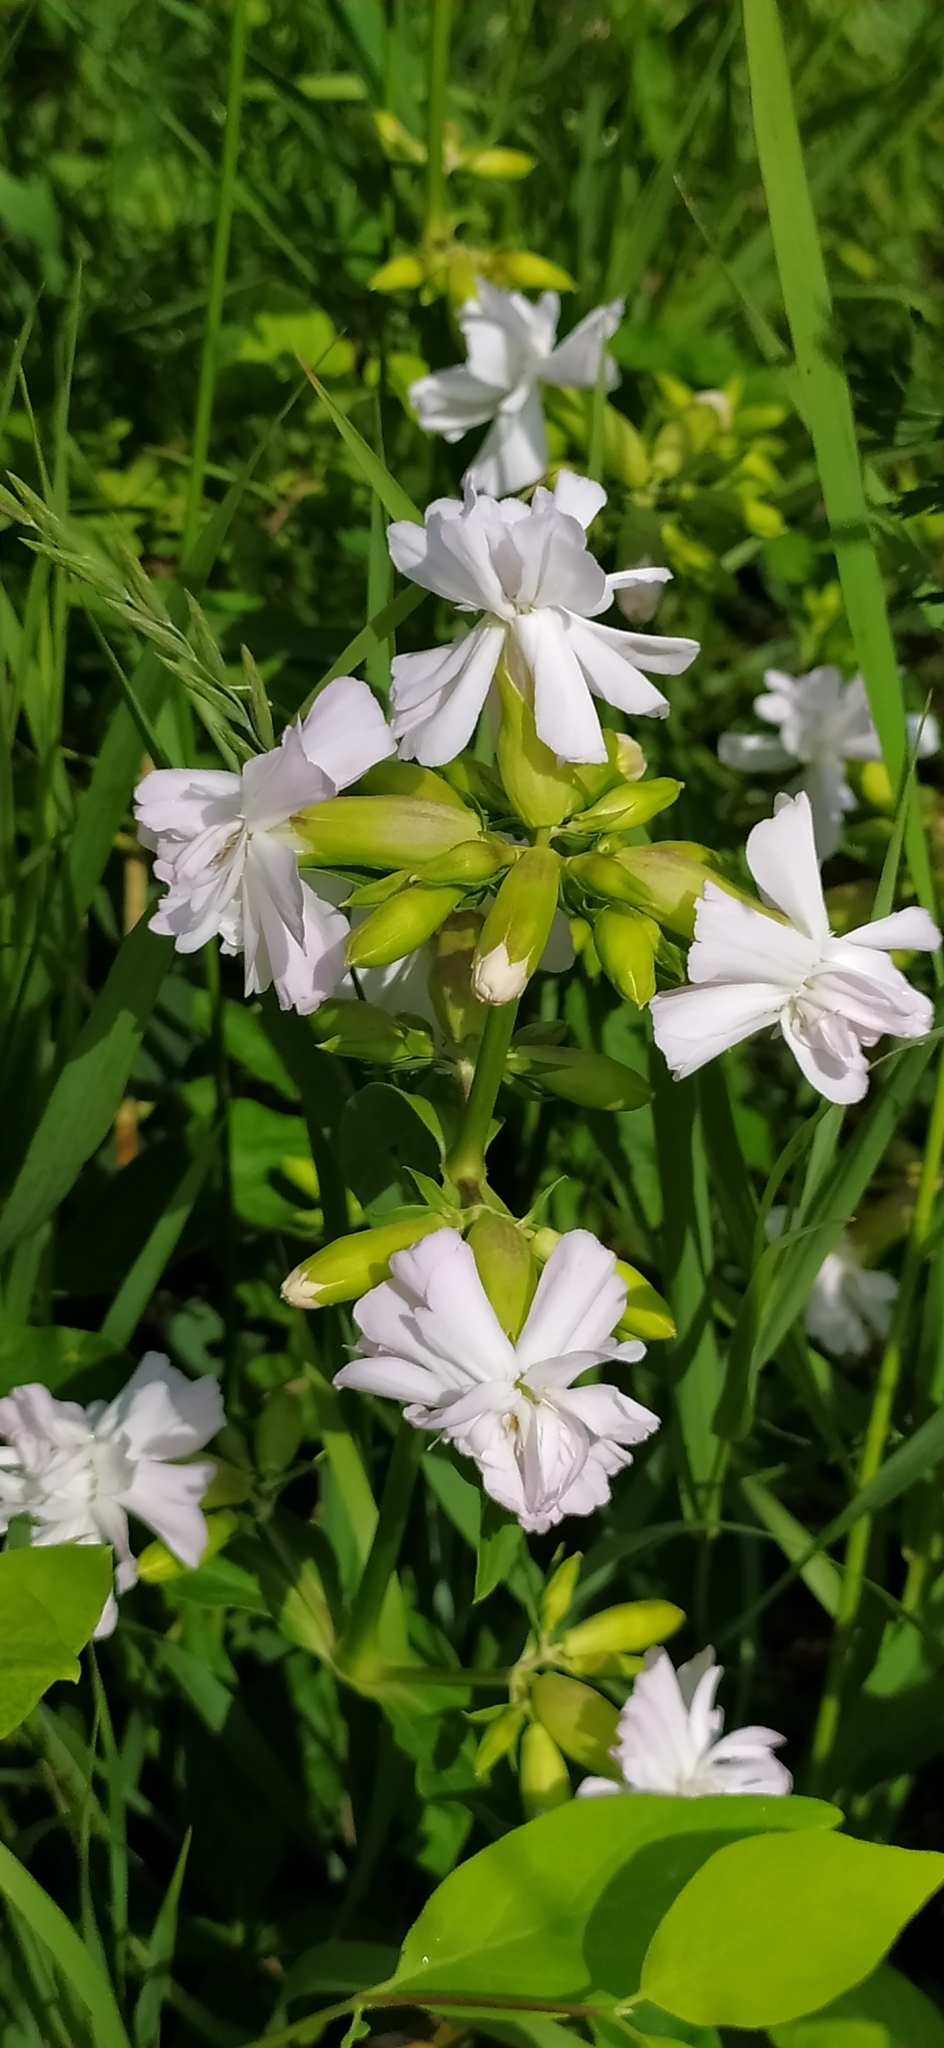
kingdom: Plantae
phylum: Tracheophyta
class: Magnoliopsida
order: Caryophyllales
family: Caryophyllaceae
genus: Saponaria
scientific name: Saponaria officinalis
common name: Soapwort
